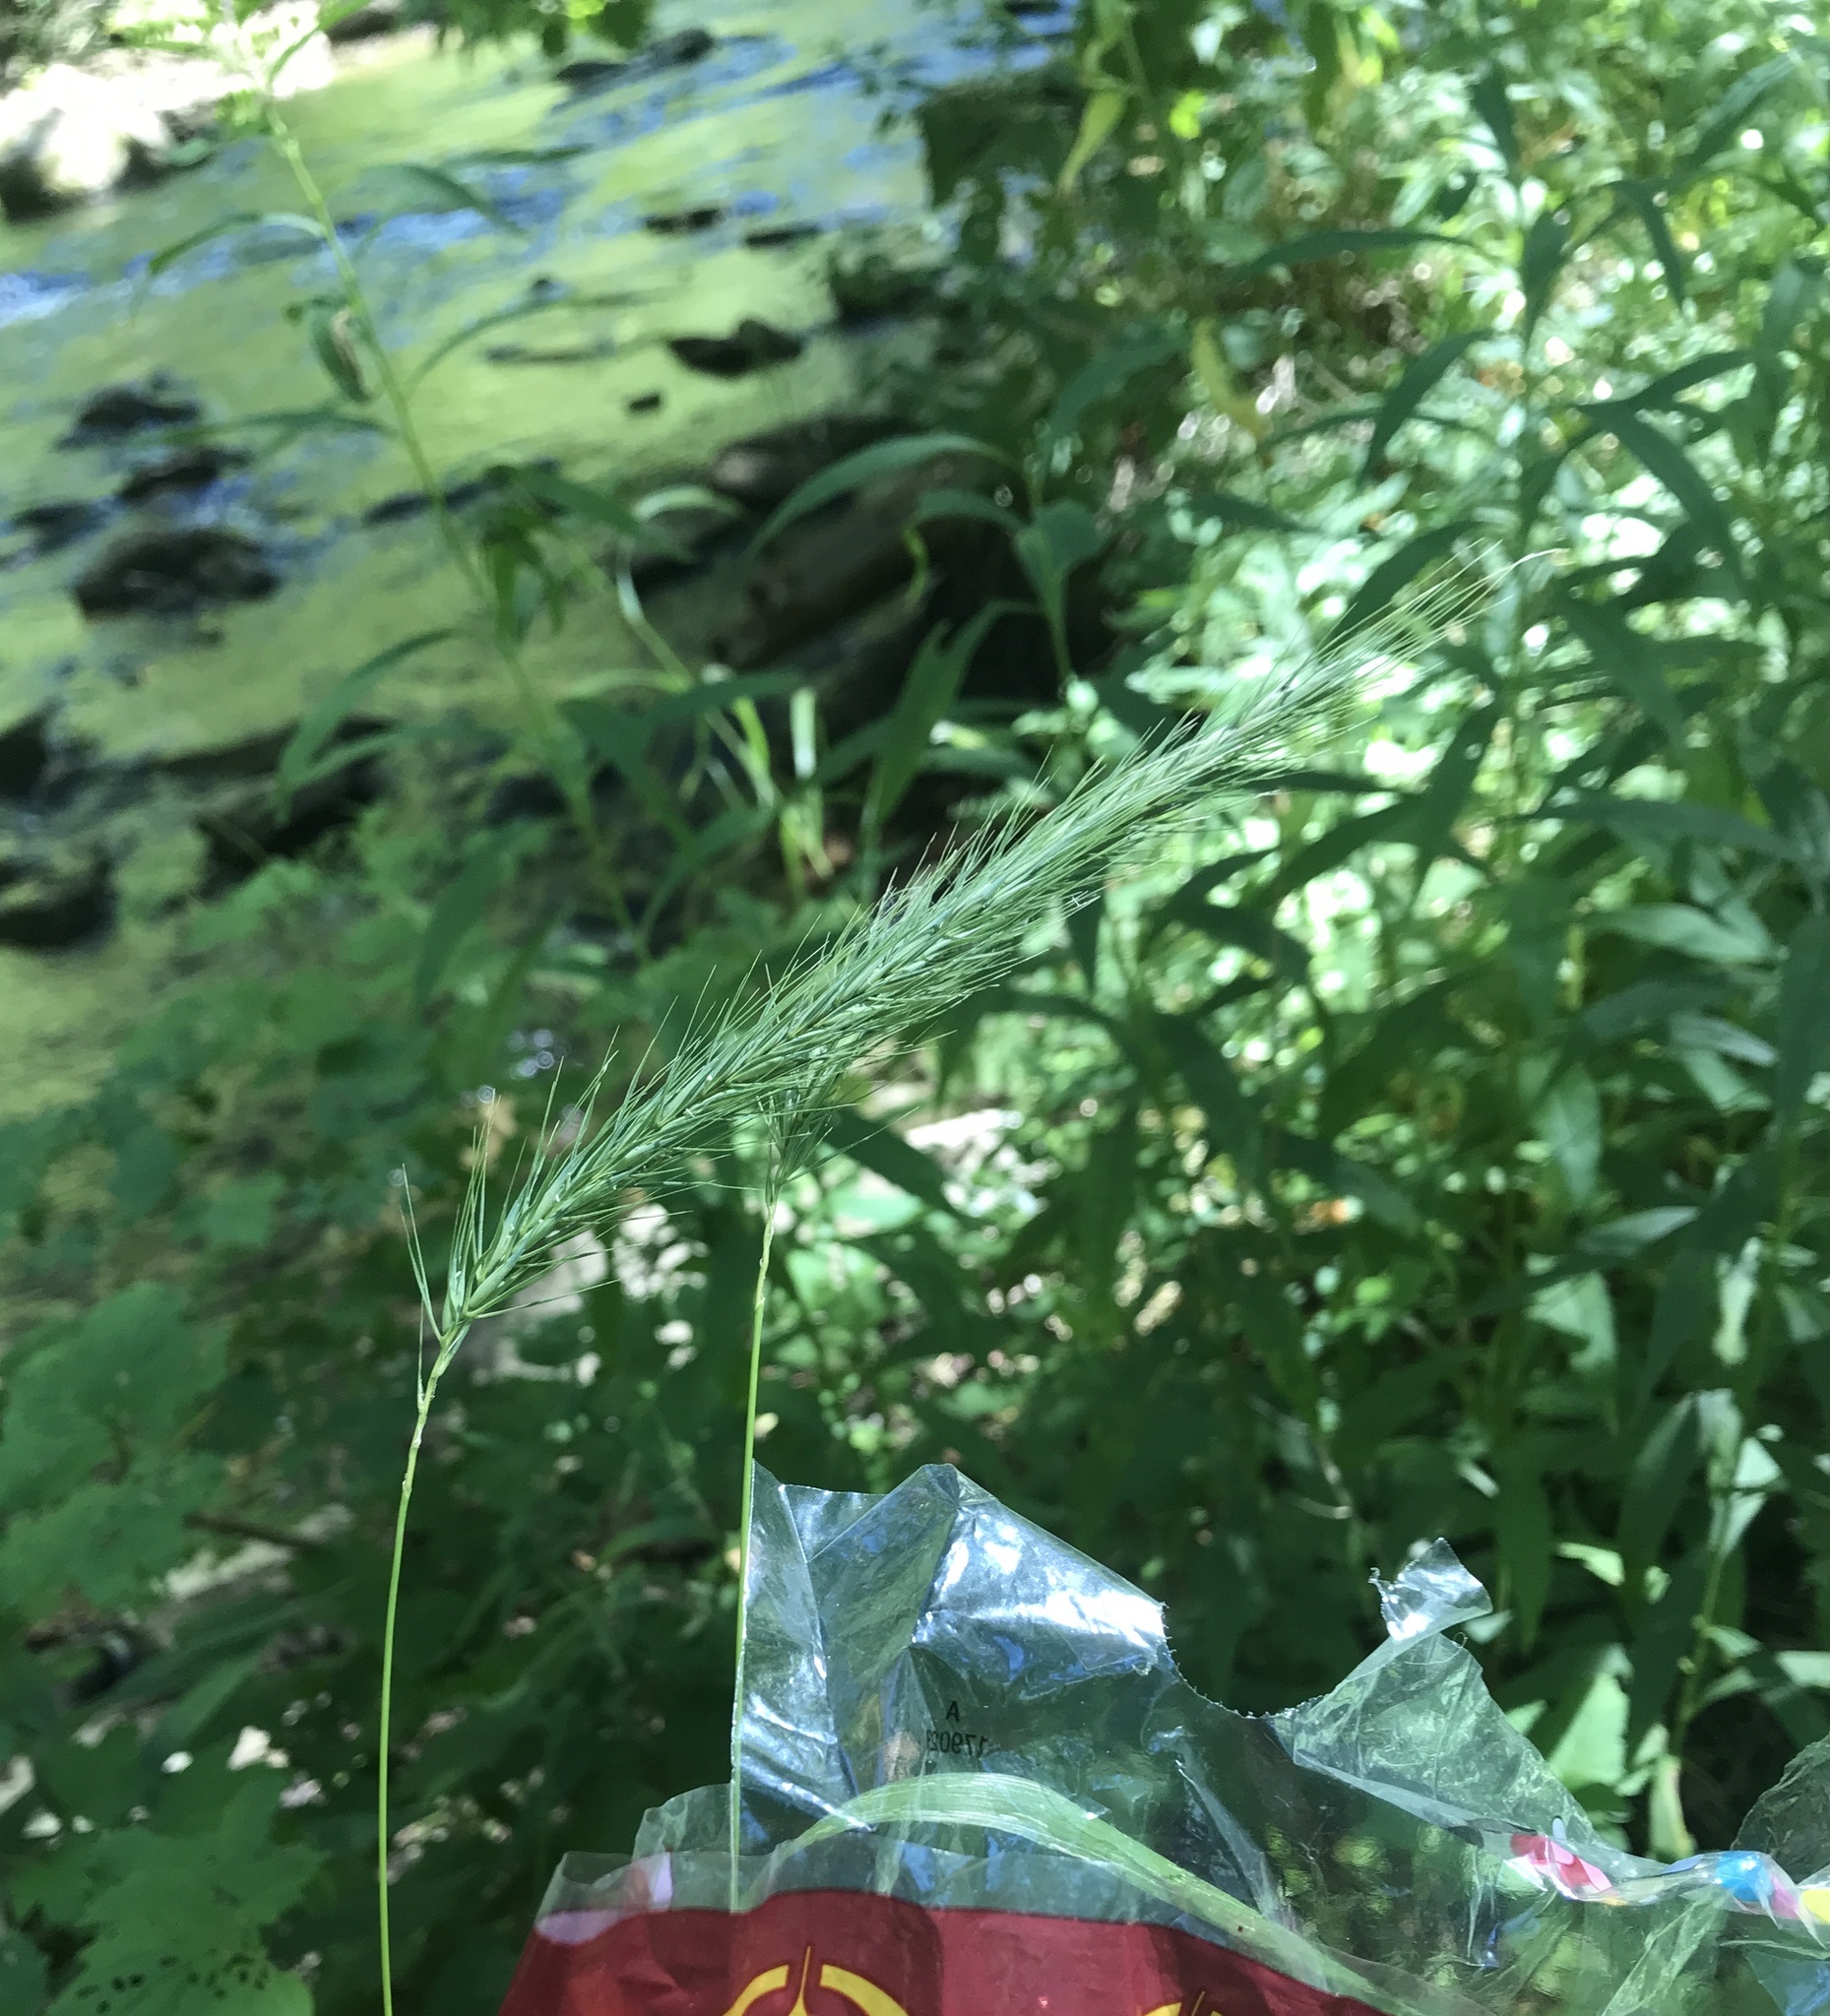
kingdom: Plantae
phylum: Tracheophyta
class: Liliopsida
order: Poales
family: Poaceae
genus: Elymus
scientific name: Elymus riparius
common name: Eastern riverbank wild rye
